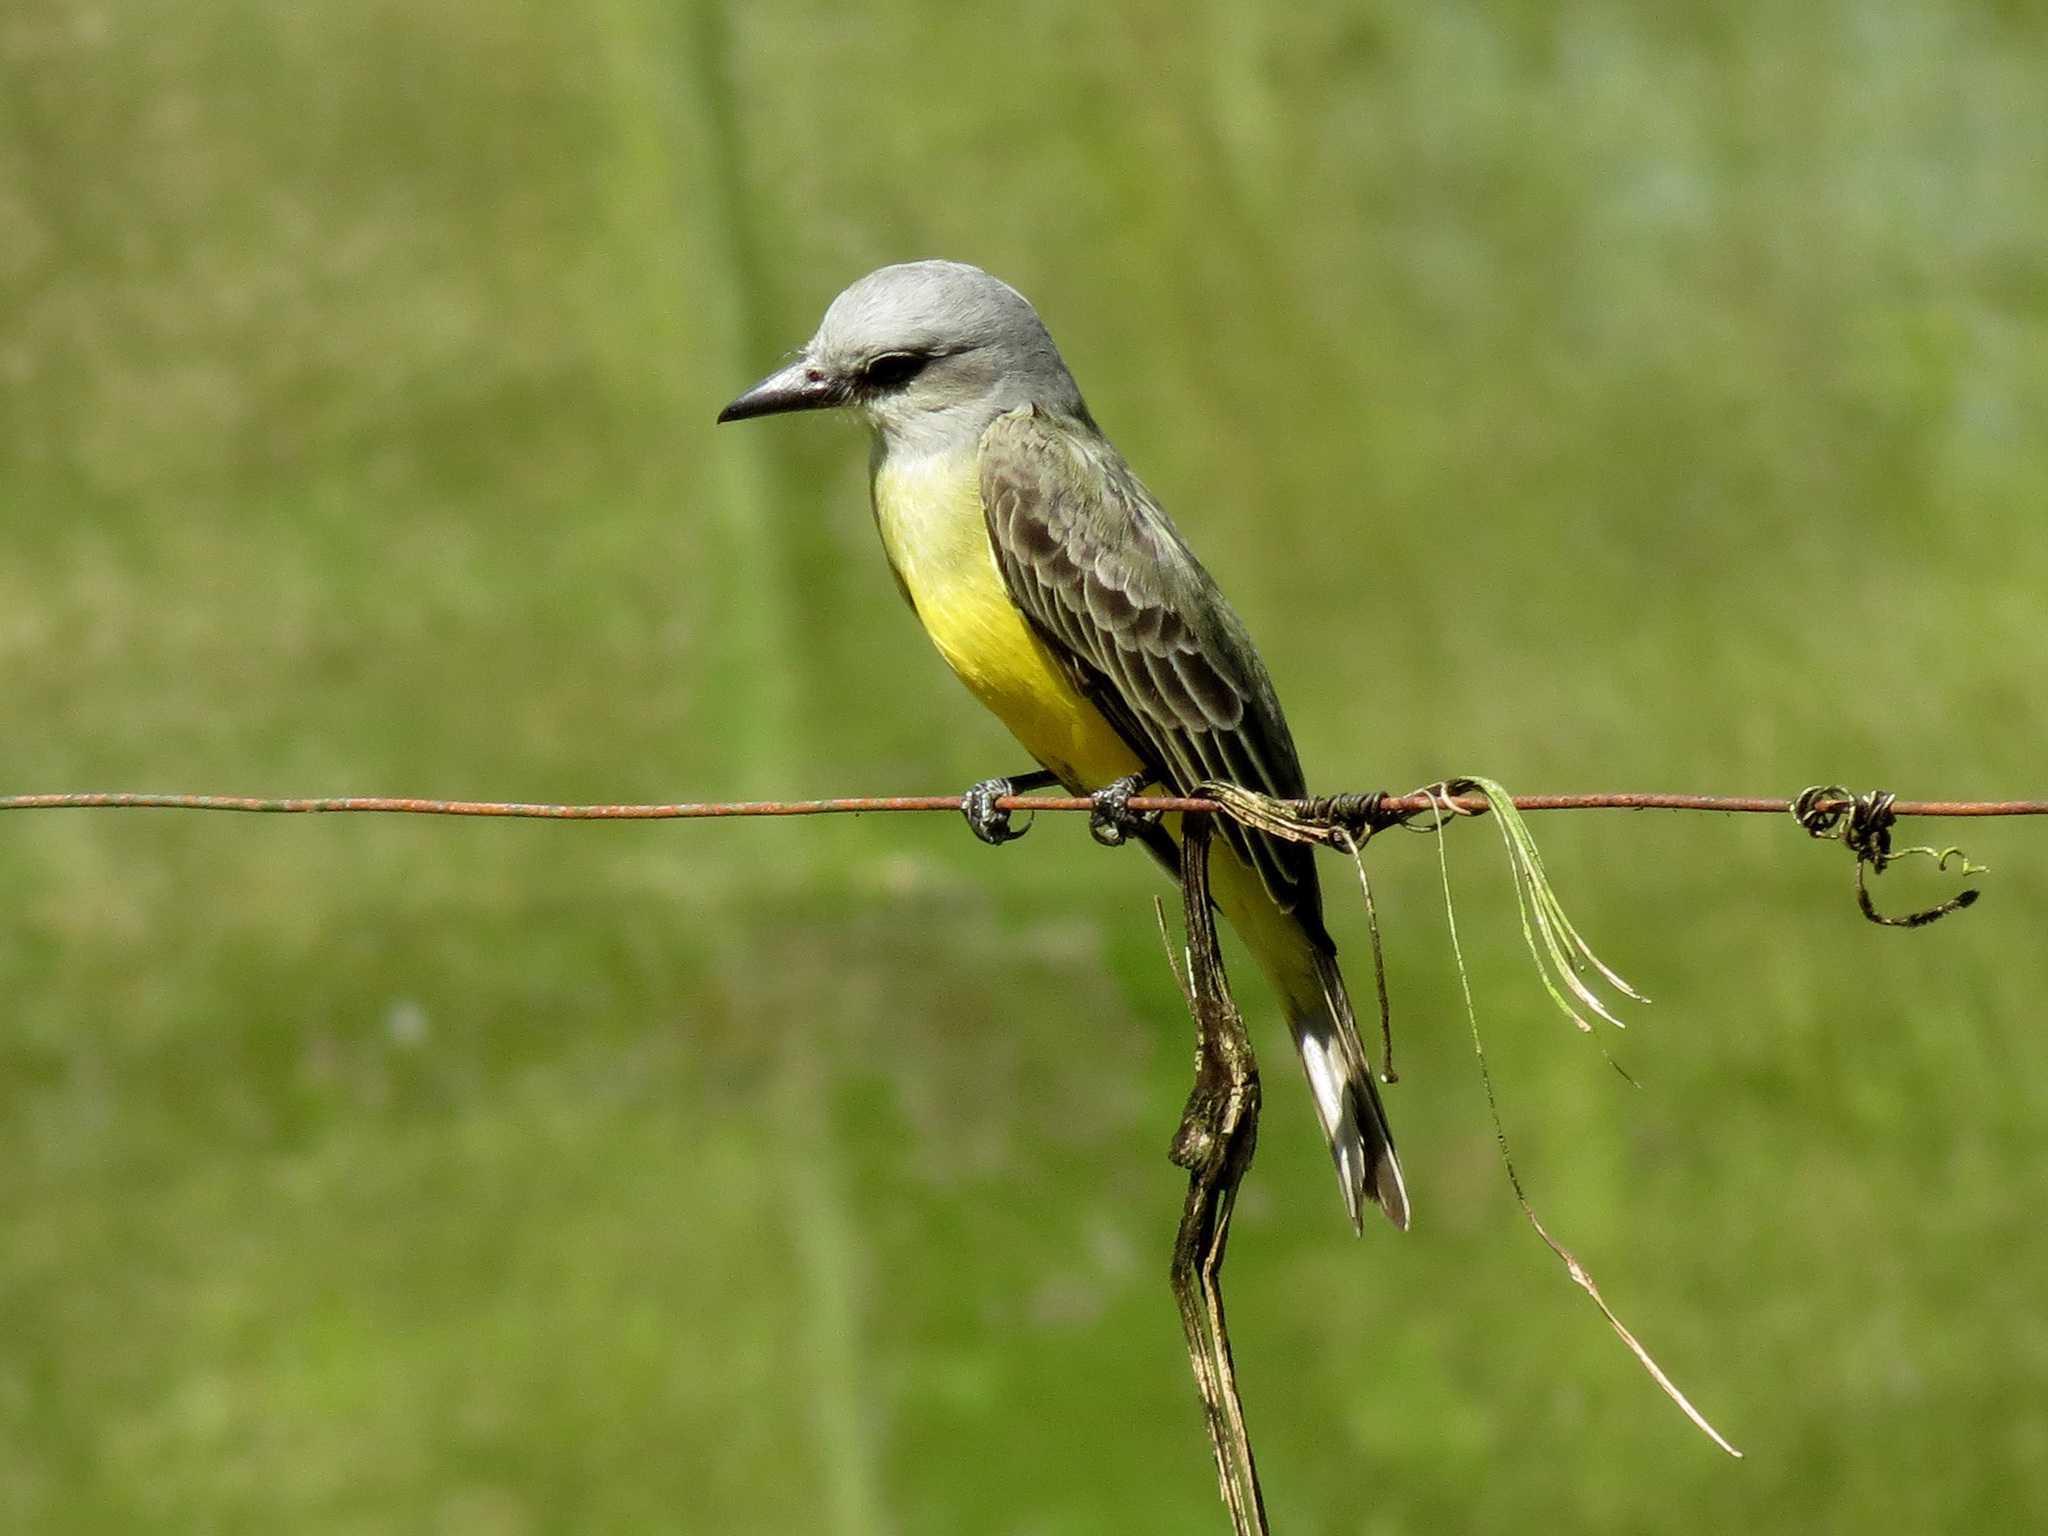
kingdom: Animalia
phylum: Chordata
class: Aves
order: Passeriformes
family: Tyrannidae
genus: Tyrannus
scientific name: Tyrannus melancholicus
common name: Tropical kingbird
